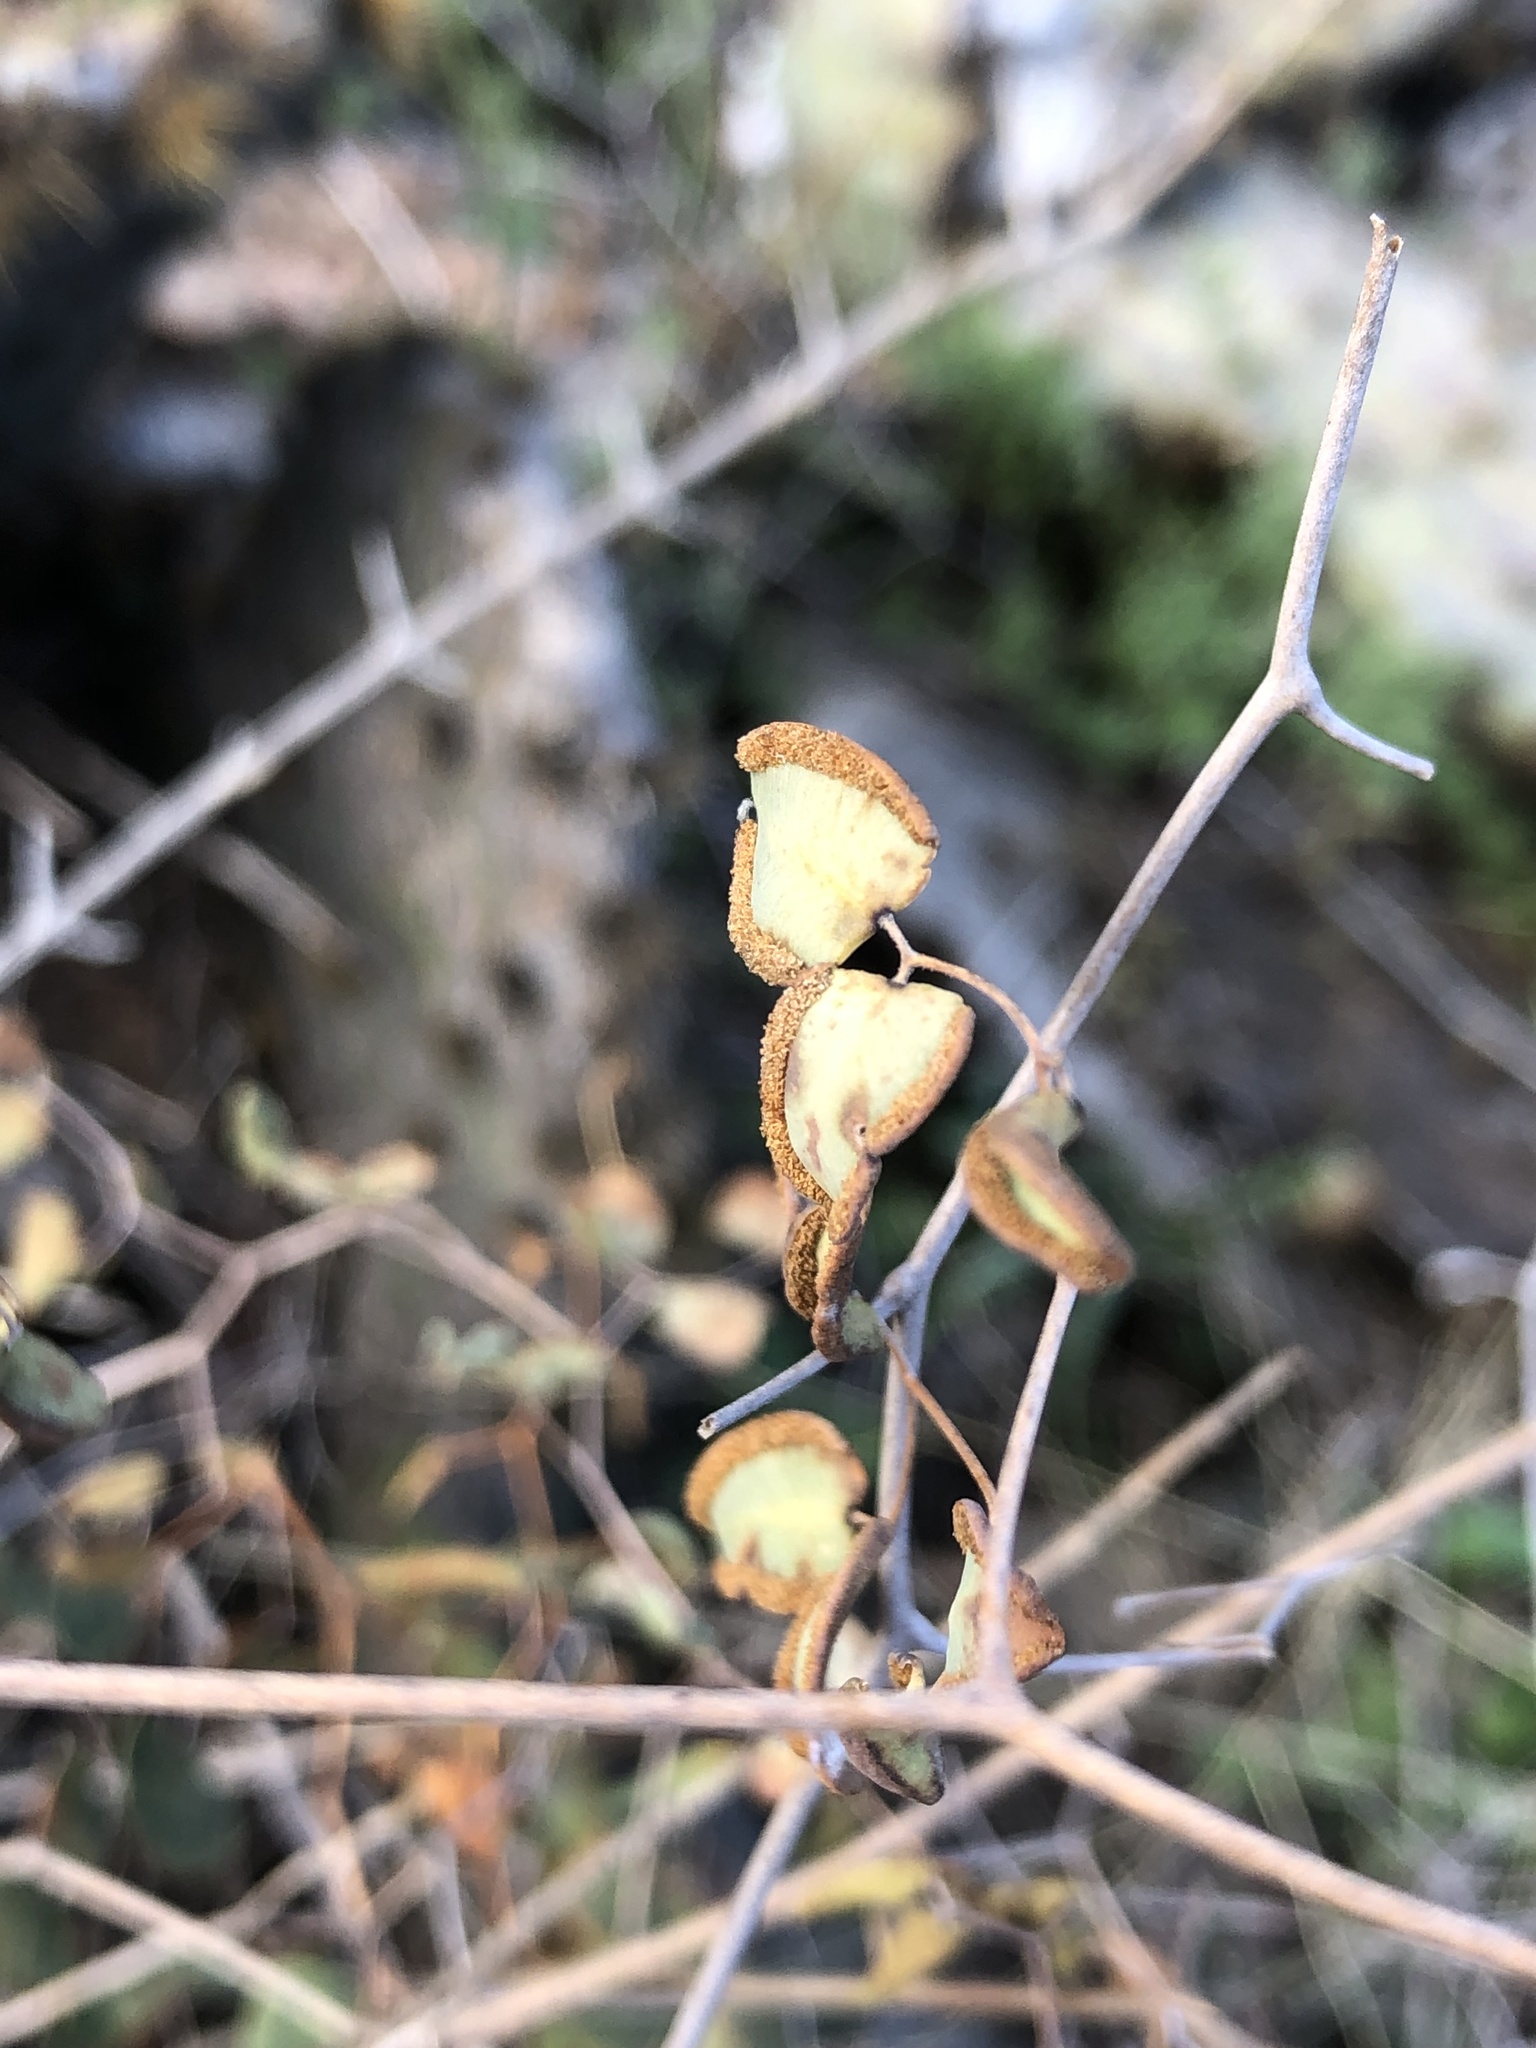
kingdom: Plantae
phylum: Tracheophyta
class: Polypodiopsida
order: Polypodiales
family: Pteridaceae
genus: Pellaea
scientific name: Pellaea ovata
